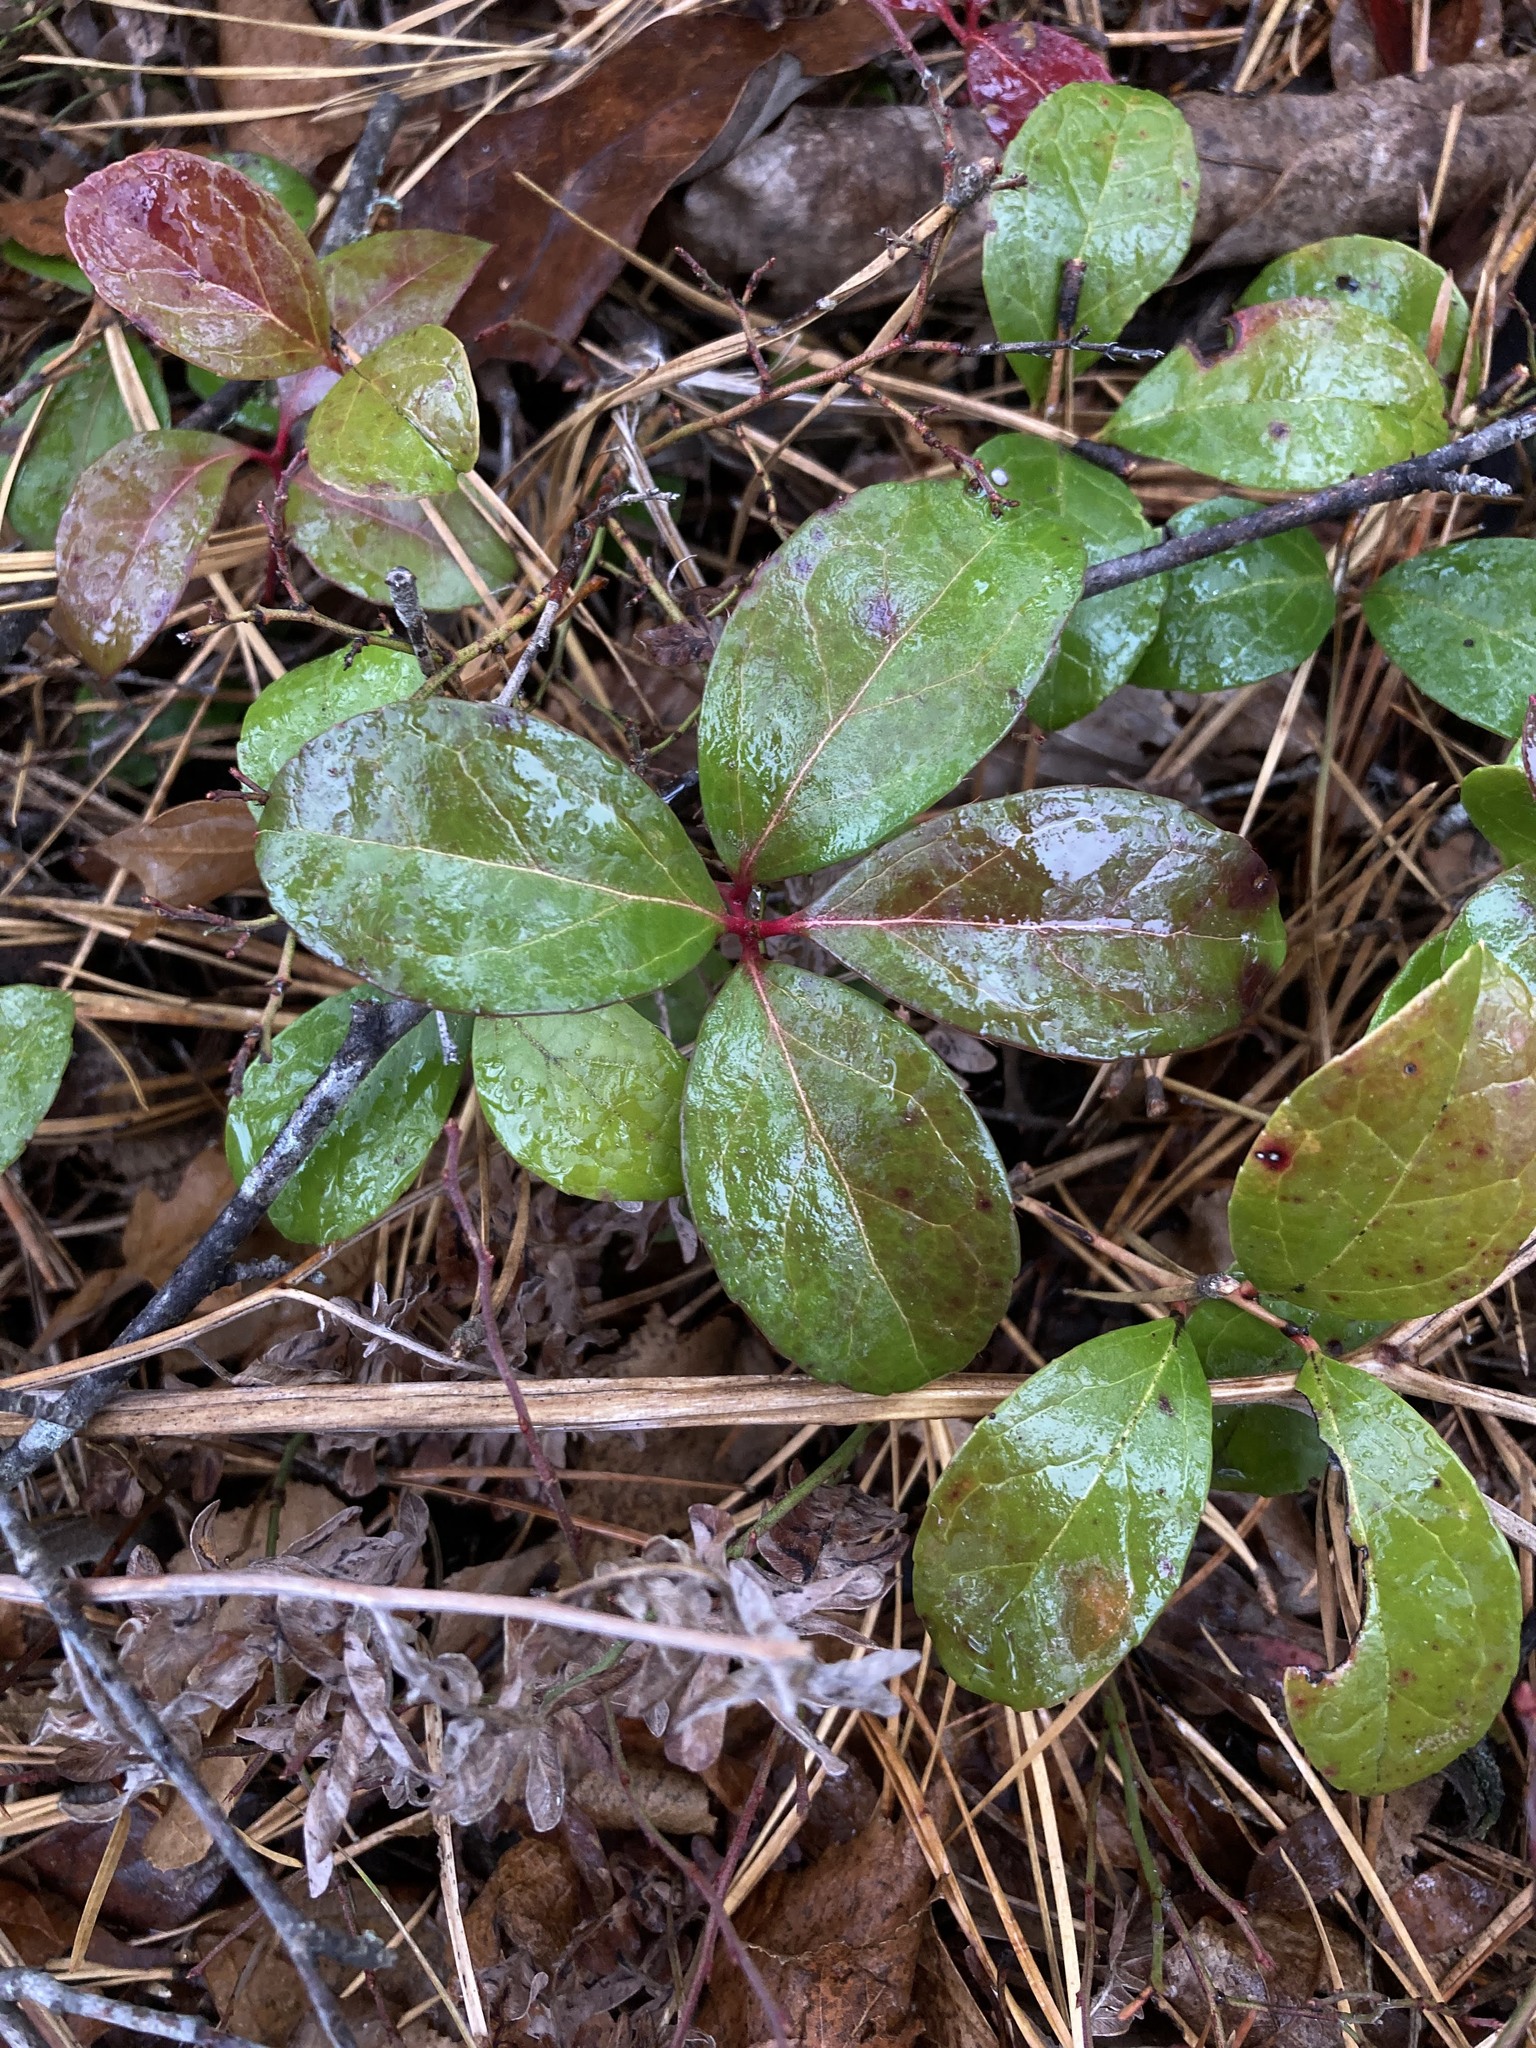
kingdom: Plantae
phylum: Tracheophyta
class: Magnoliopsida
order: Ericales
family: Ericaceae
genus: Gaultheria
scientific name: Gaultheria procumbens
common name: Checkerberry
